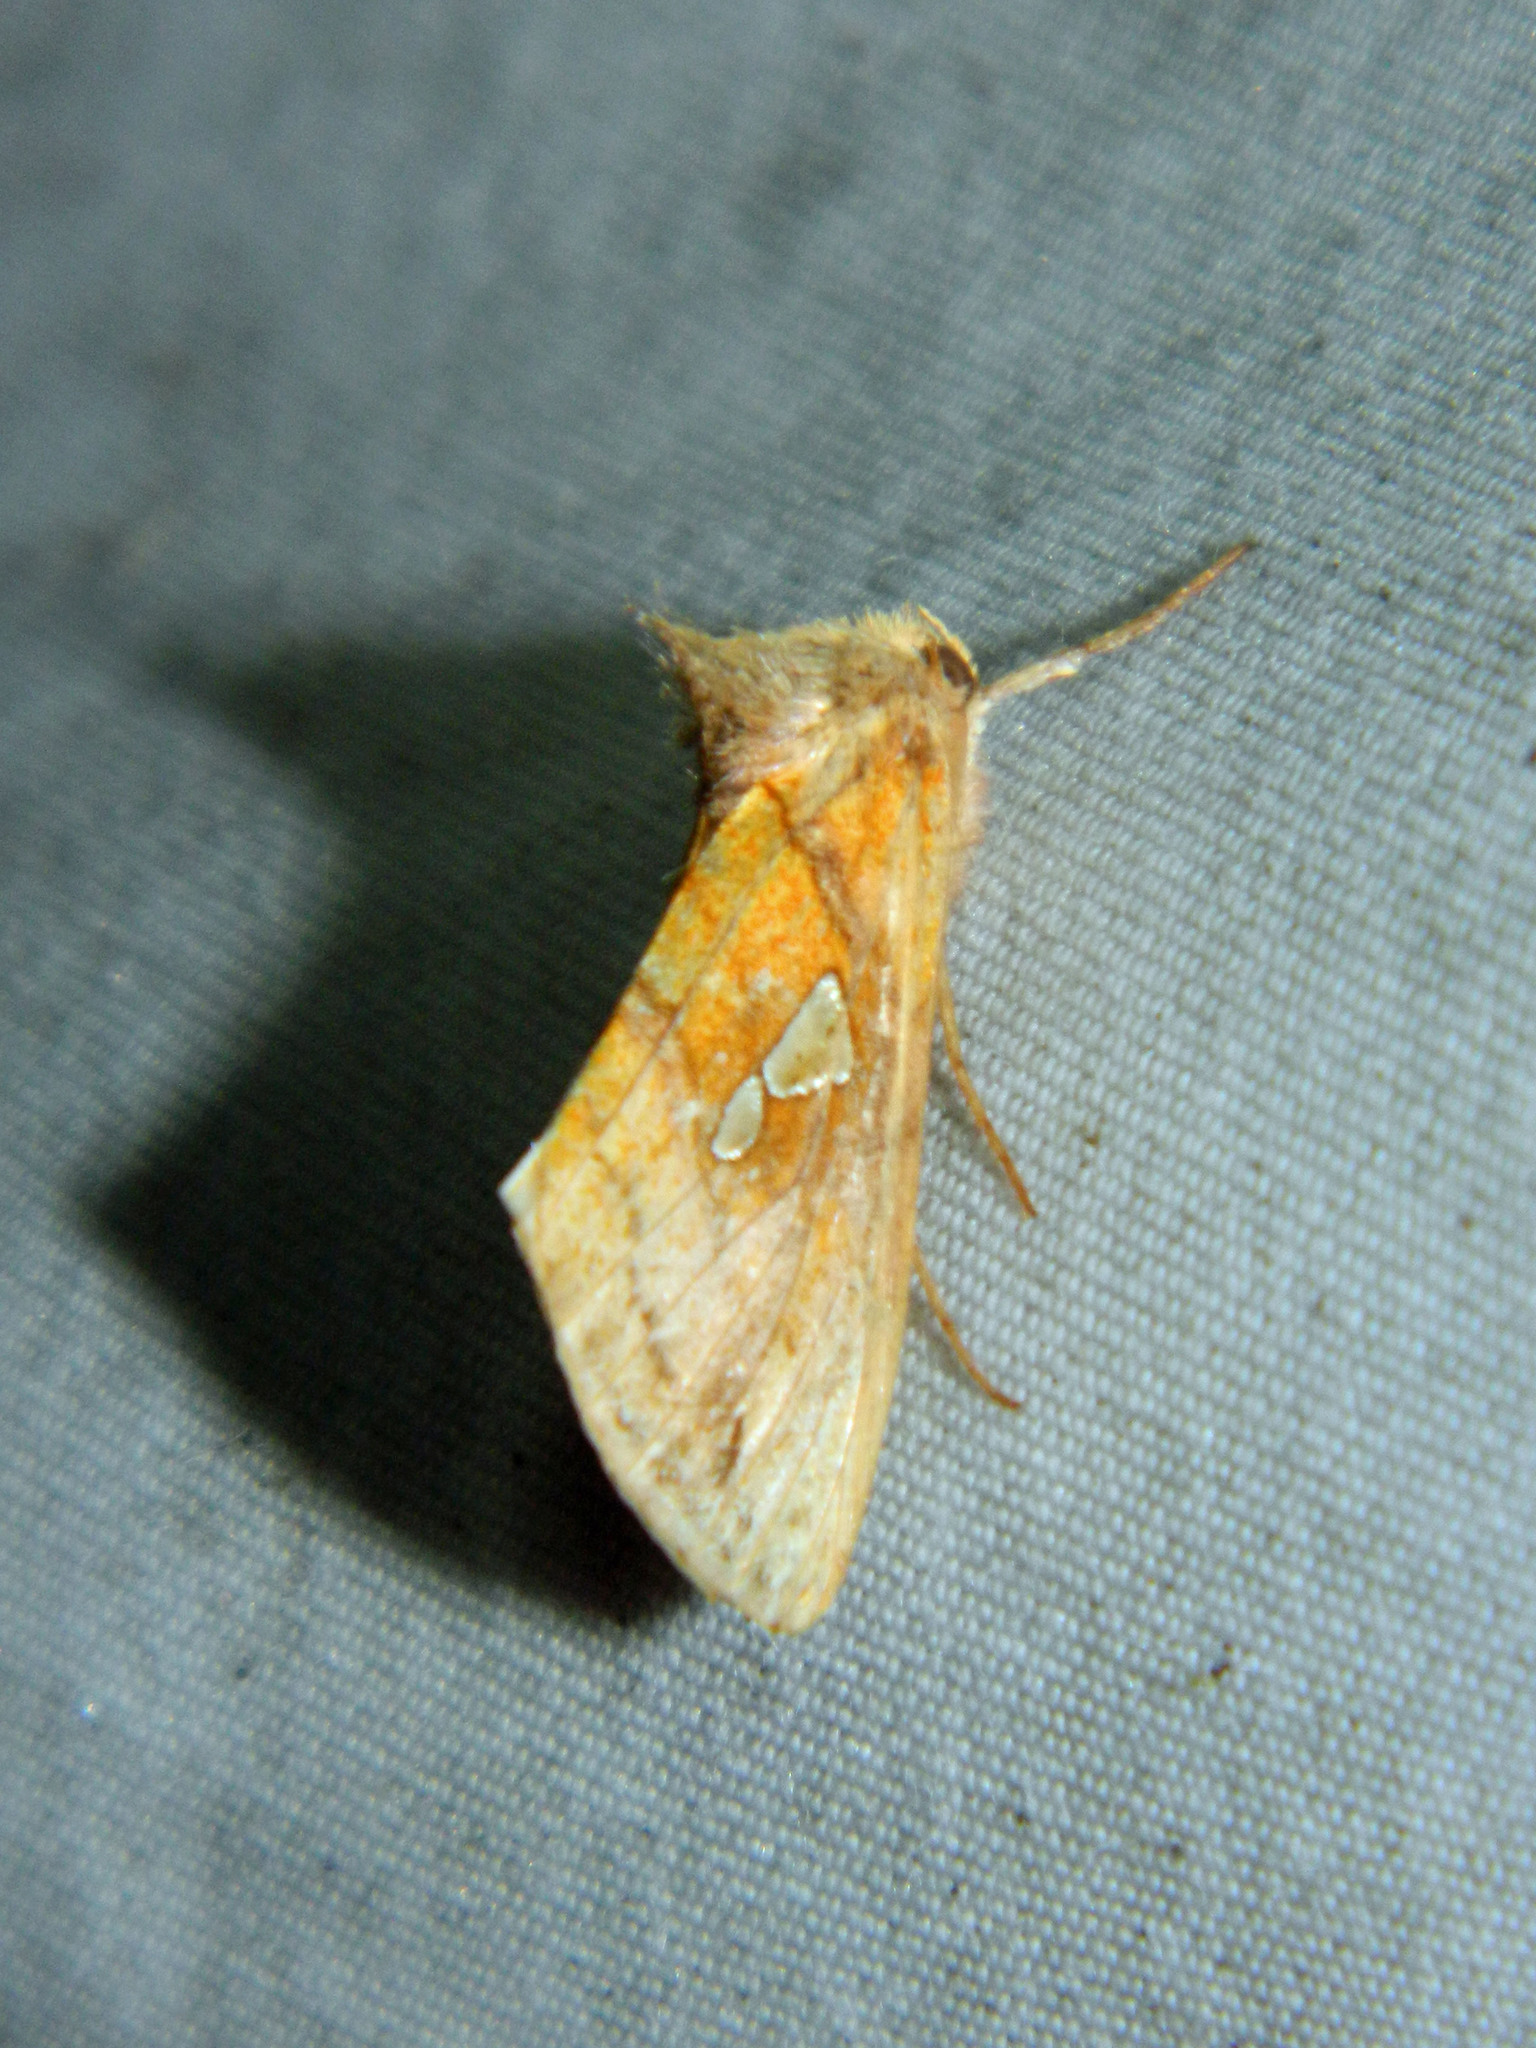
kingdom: Animalia
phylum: Arthropoda
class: Insecta
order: Lepidoptera
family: Noctuidae
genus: Plusia
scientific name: Plusia putnami
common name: Lempke's gold spot
